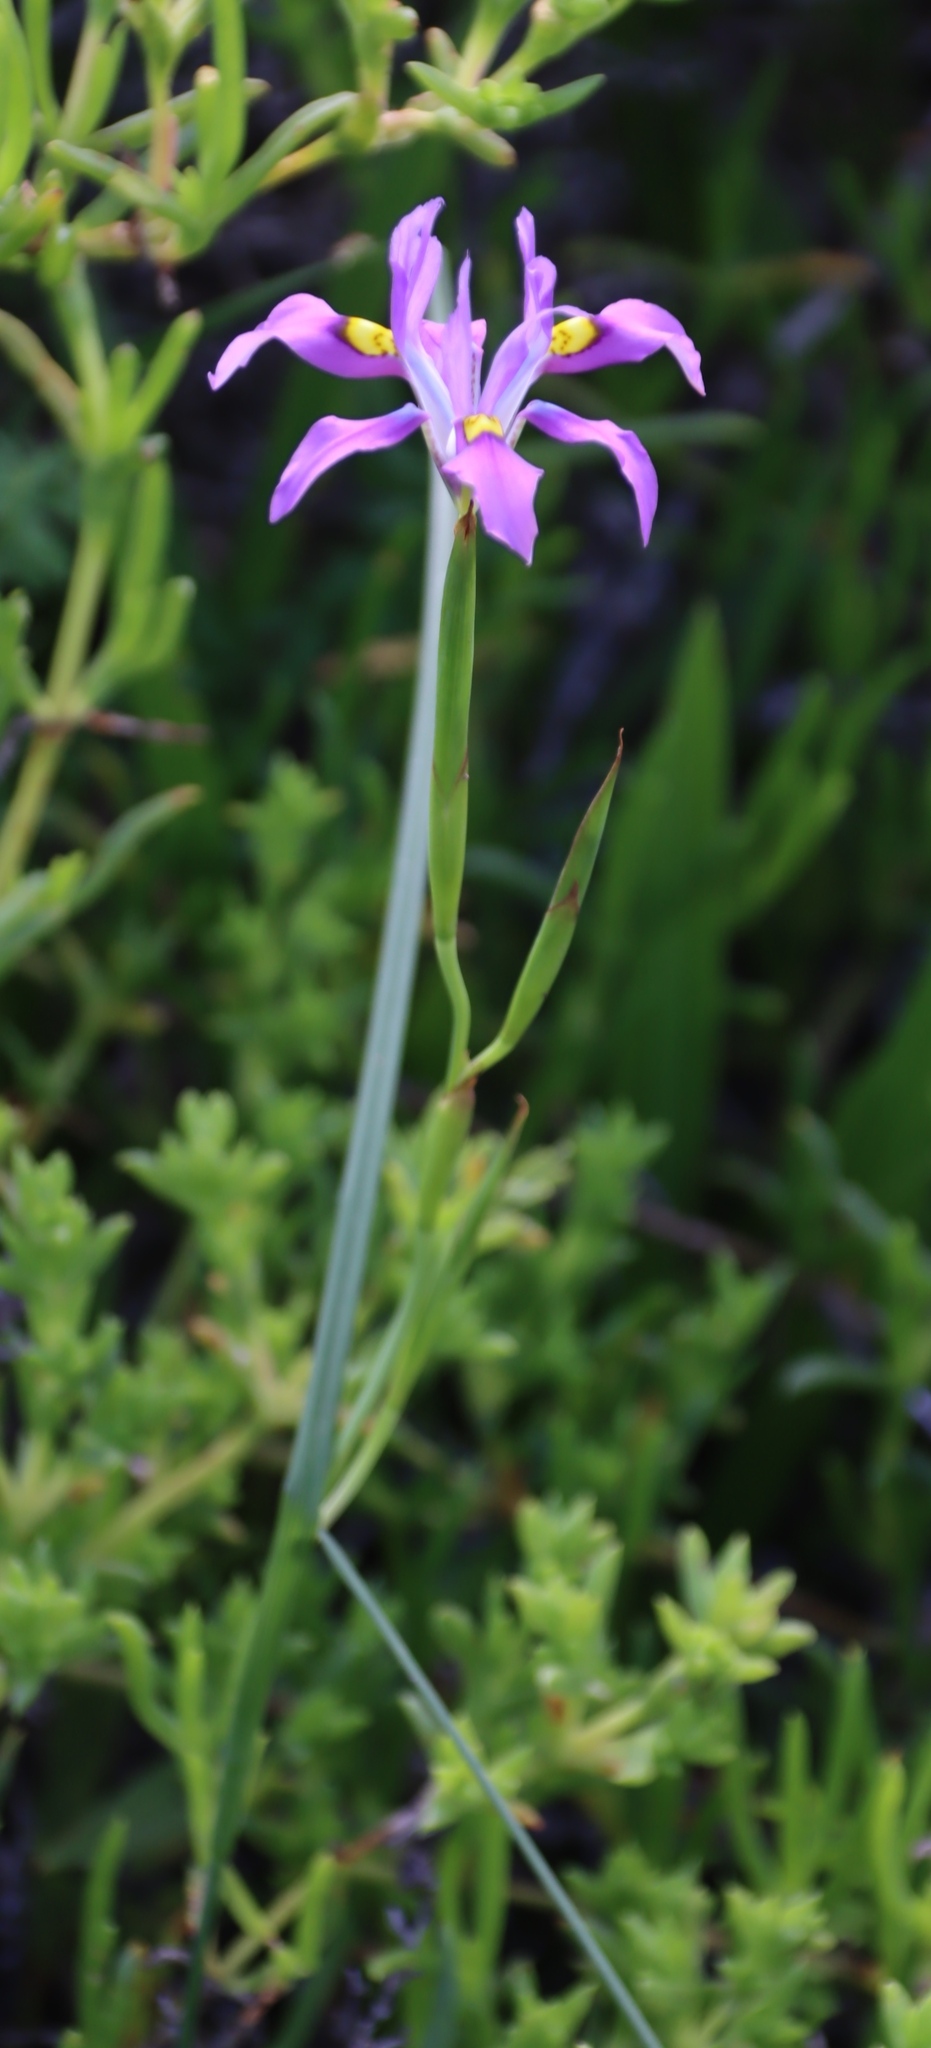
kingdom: Plantae
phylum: Tracheophyta
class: Liliopsida
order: Asparagales
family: Iridaceae
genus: Moraea
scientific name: Moraea fugax
